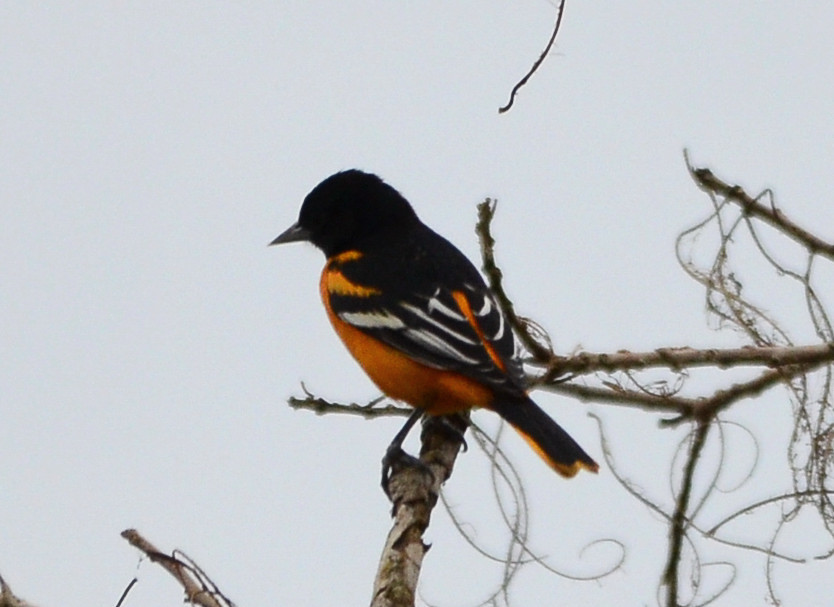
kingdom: Animalia
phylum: Chordata
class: Aves
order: Passeriformes
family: Icteridae
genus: Icterus
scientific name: Icterus galbula
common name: Baltimore oriole
